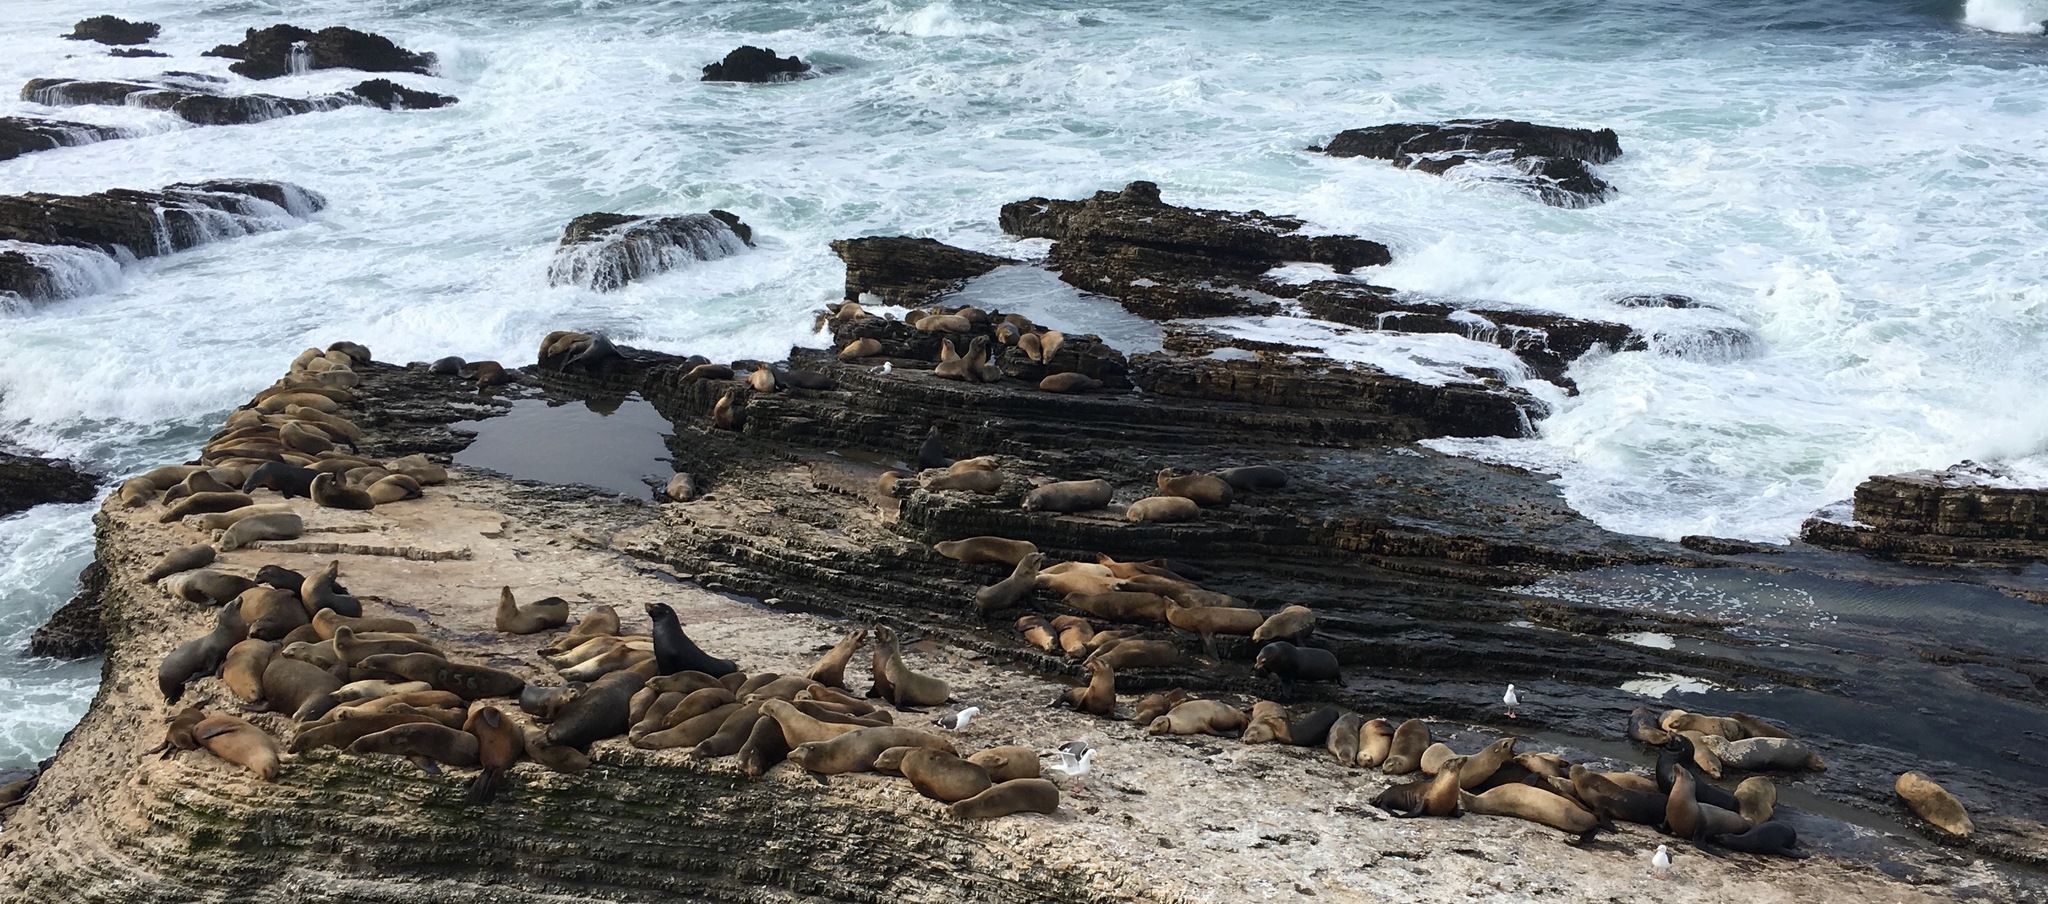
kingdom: Animalia
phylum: Chordata
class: Mammalia
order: Carnivora
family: Otariidae
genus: Zalophus
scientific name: Zalophus californianus
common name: California sea lion
